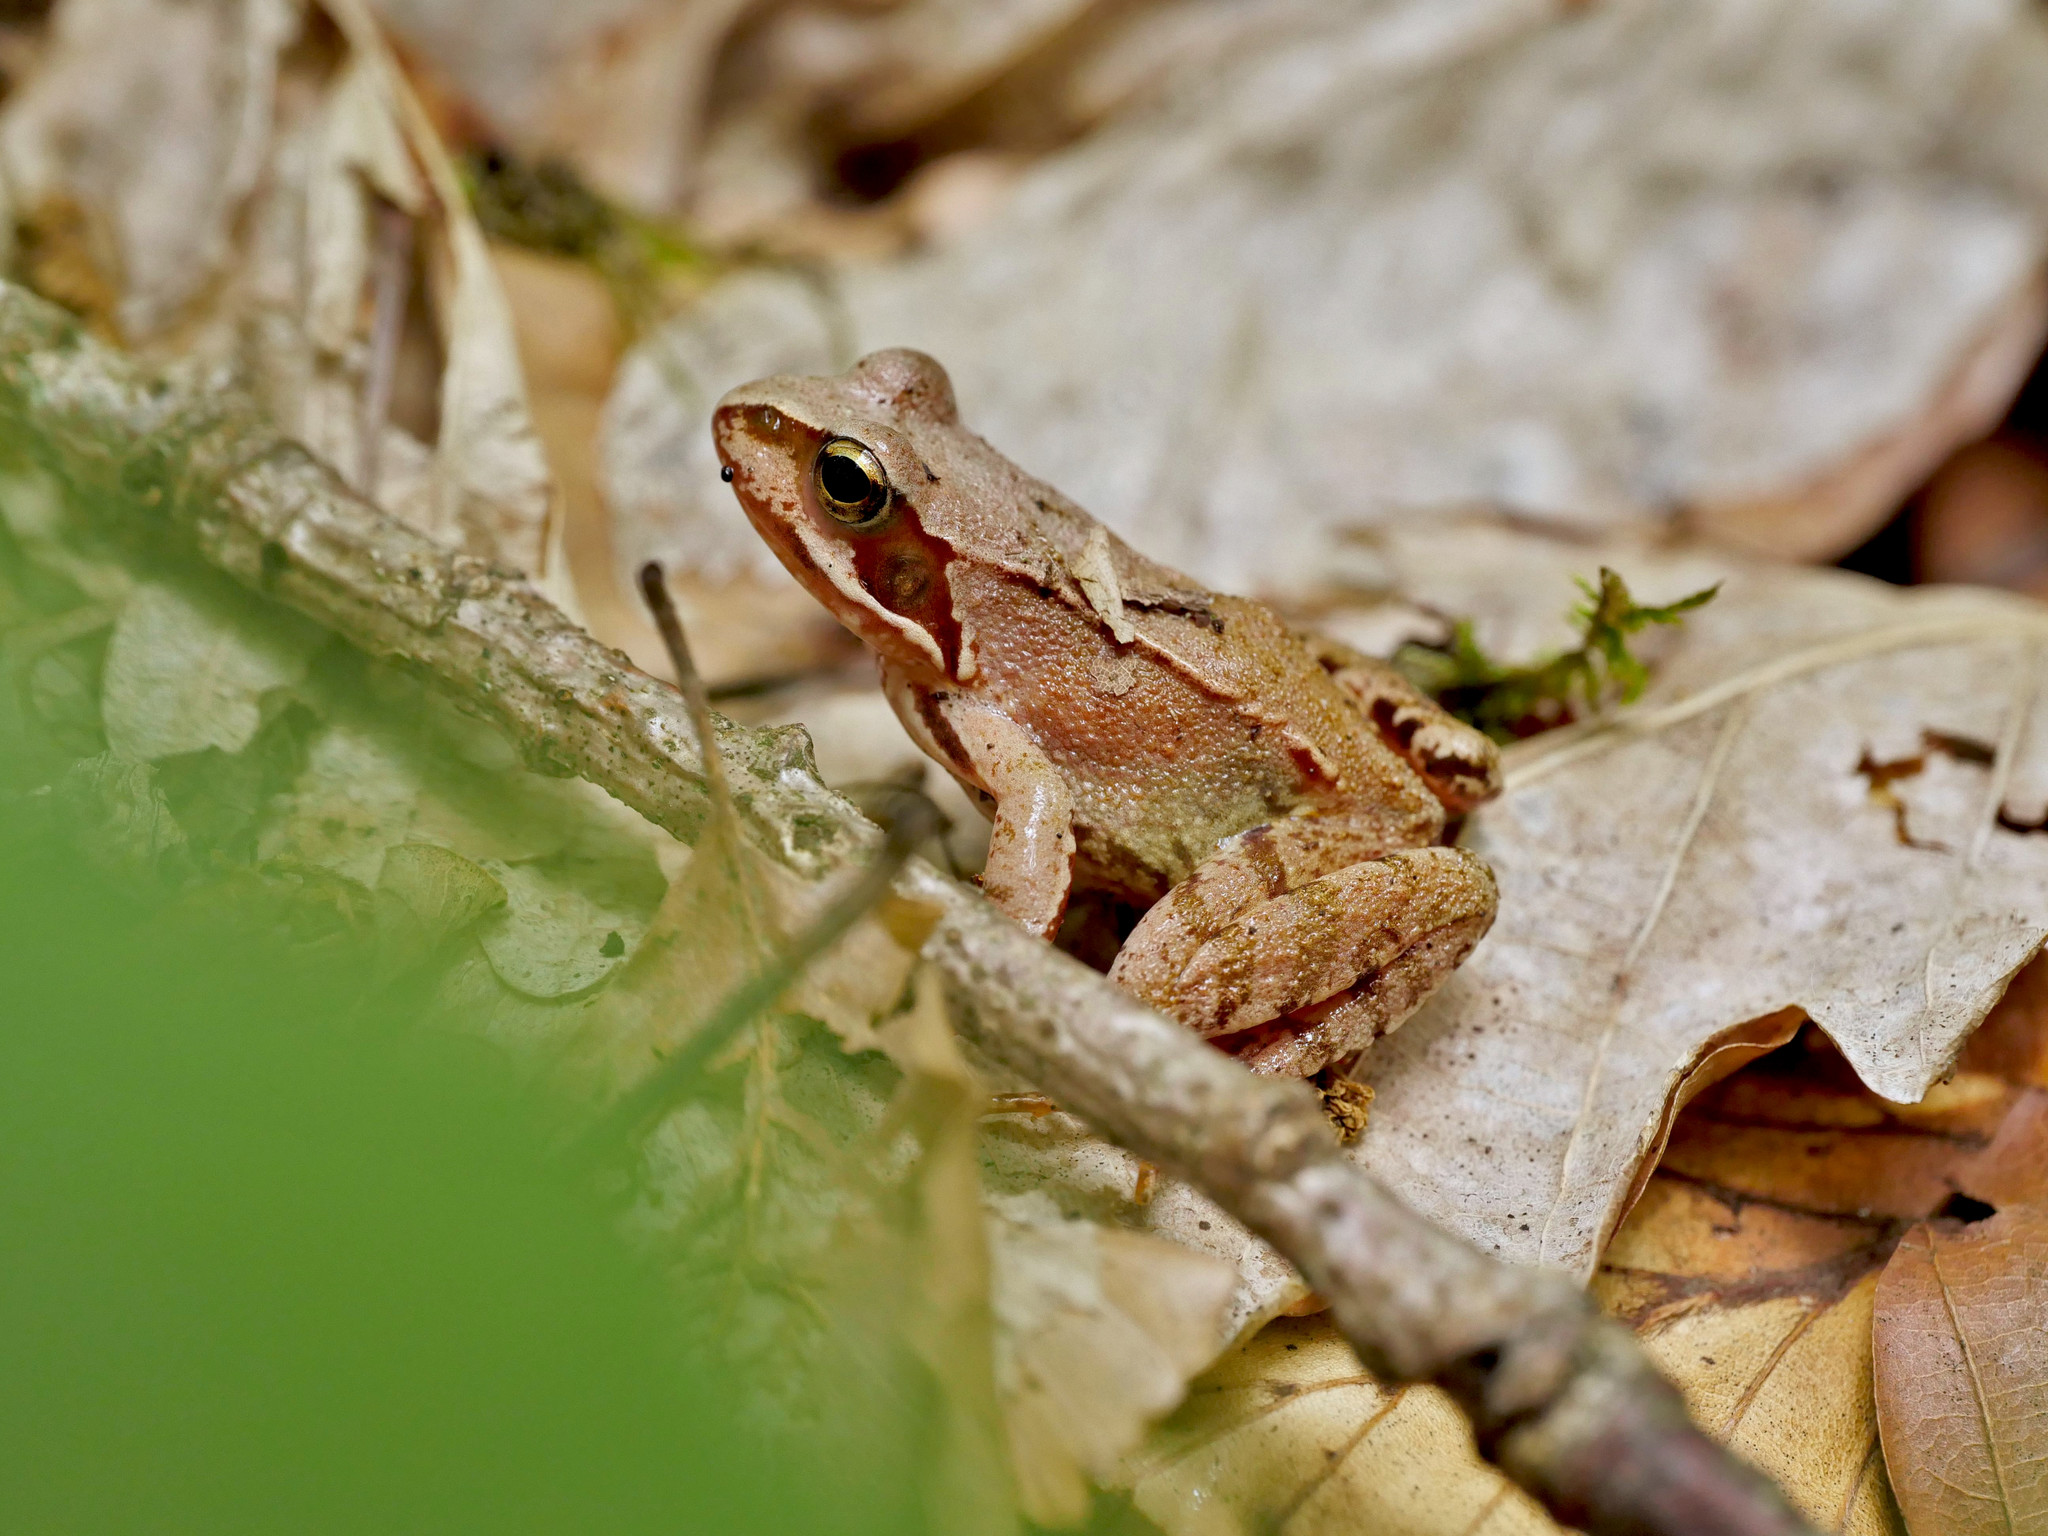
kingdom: Animalia
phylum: Chordata
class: Amphibia
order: Anura
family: Ranidae
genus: Rana
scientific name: Rana temporaria
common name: Common frog
